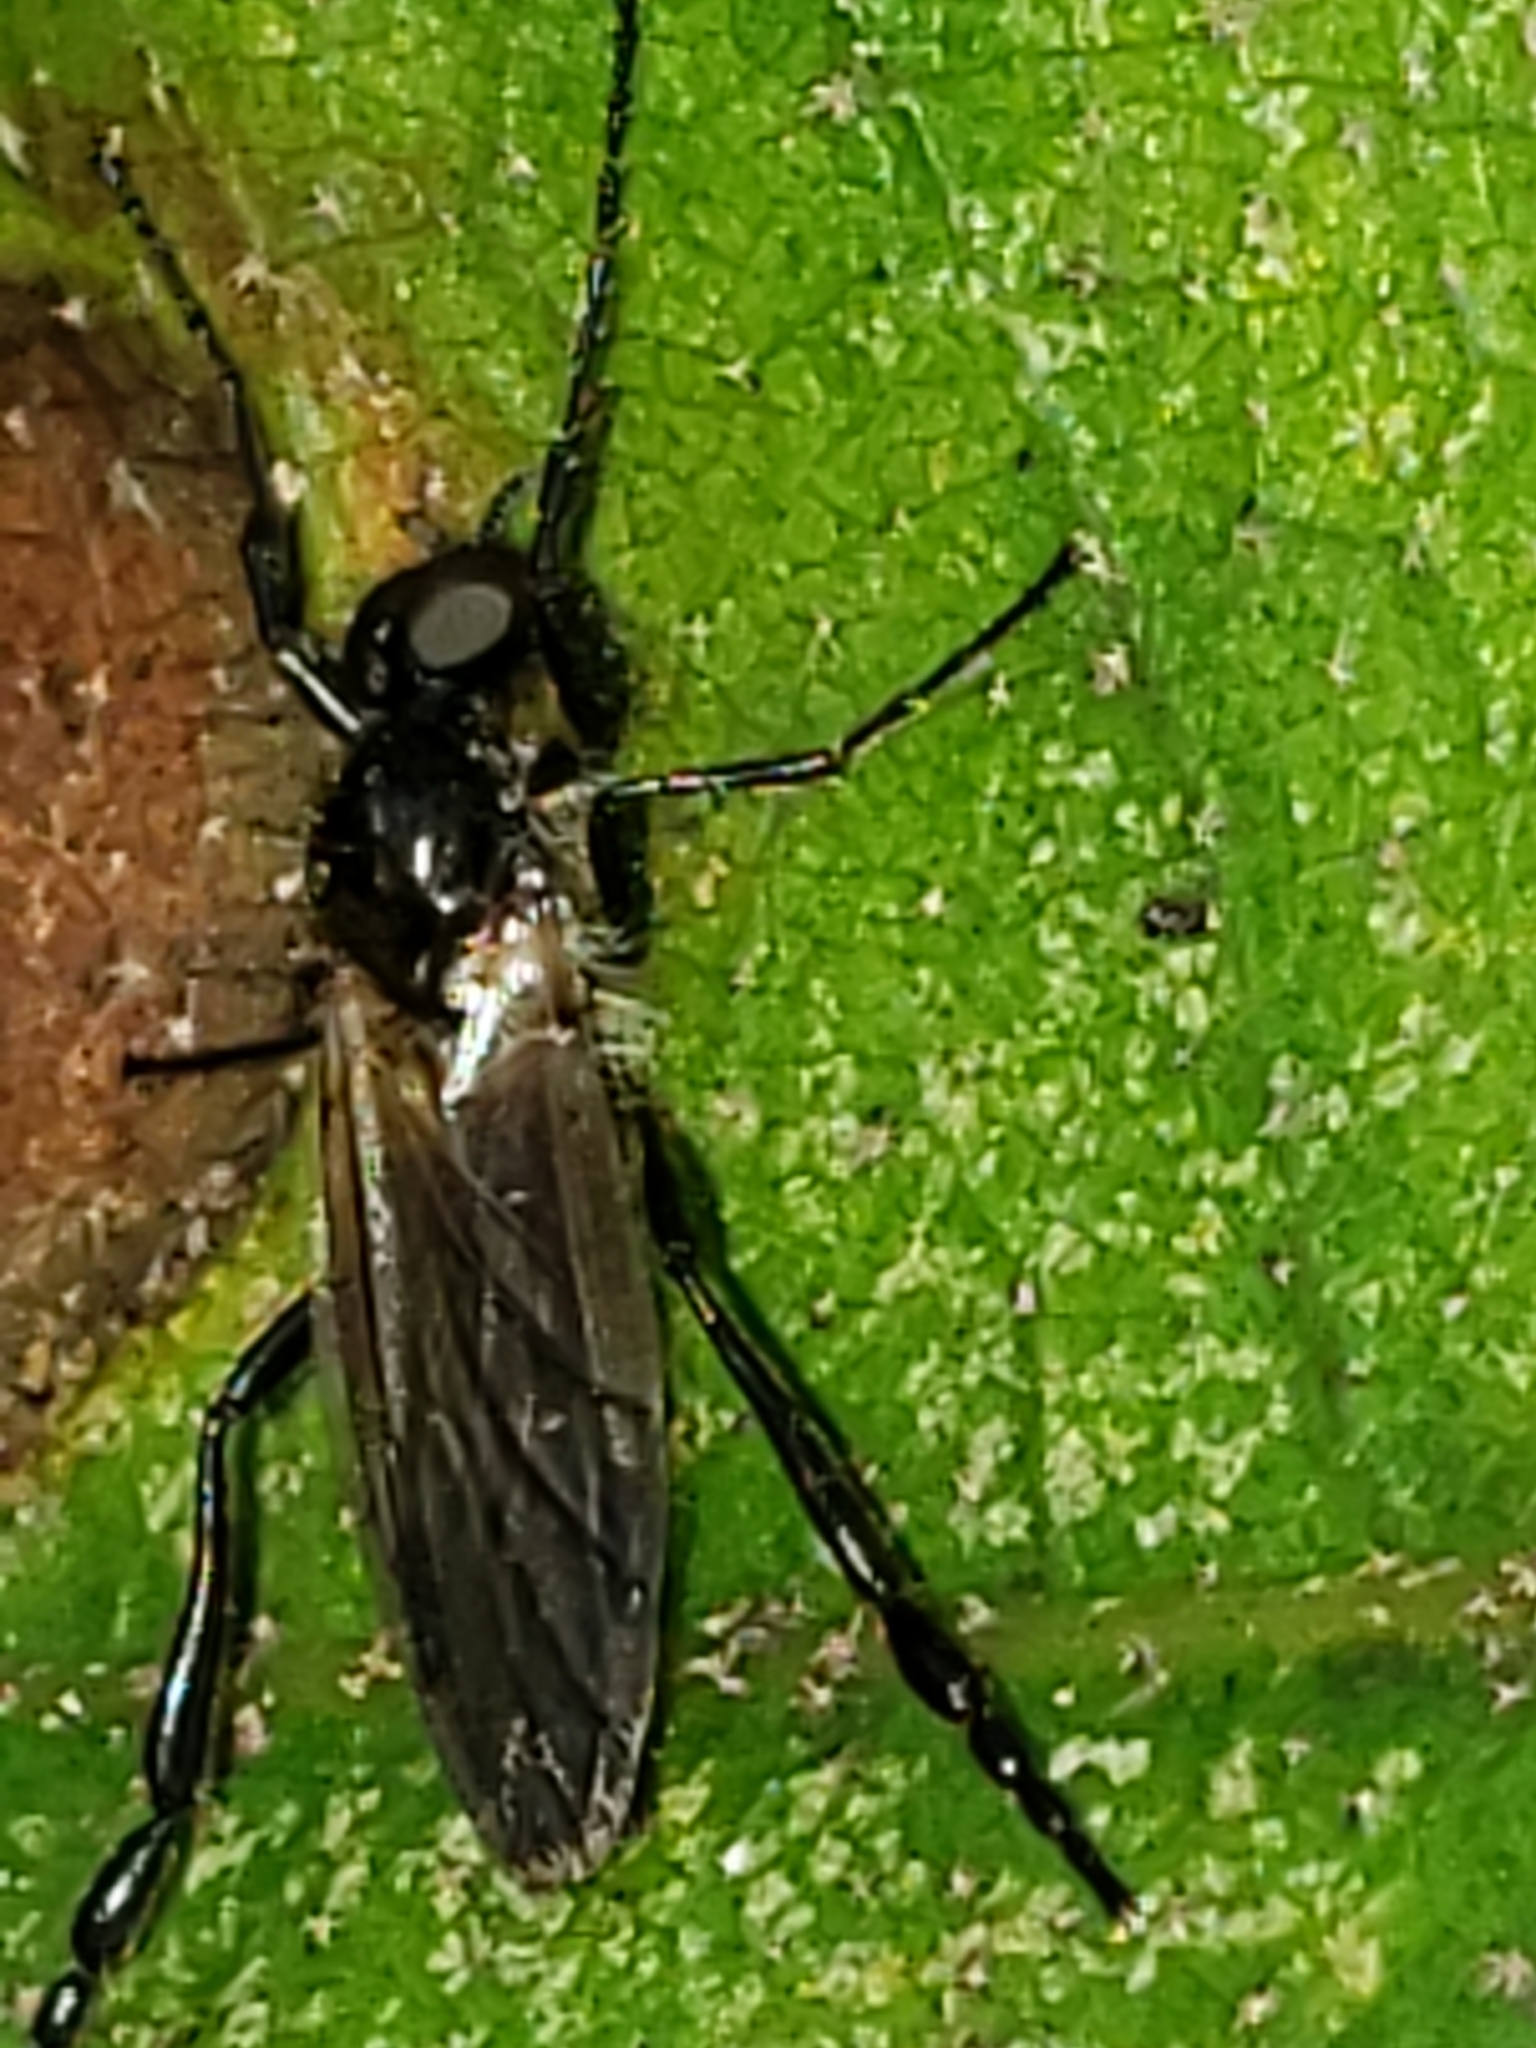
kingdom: Animalia
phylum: Arthropoda
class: Insecta
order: Diptera
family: Bibionidae
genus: Bibio
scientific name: Bibio longipes
